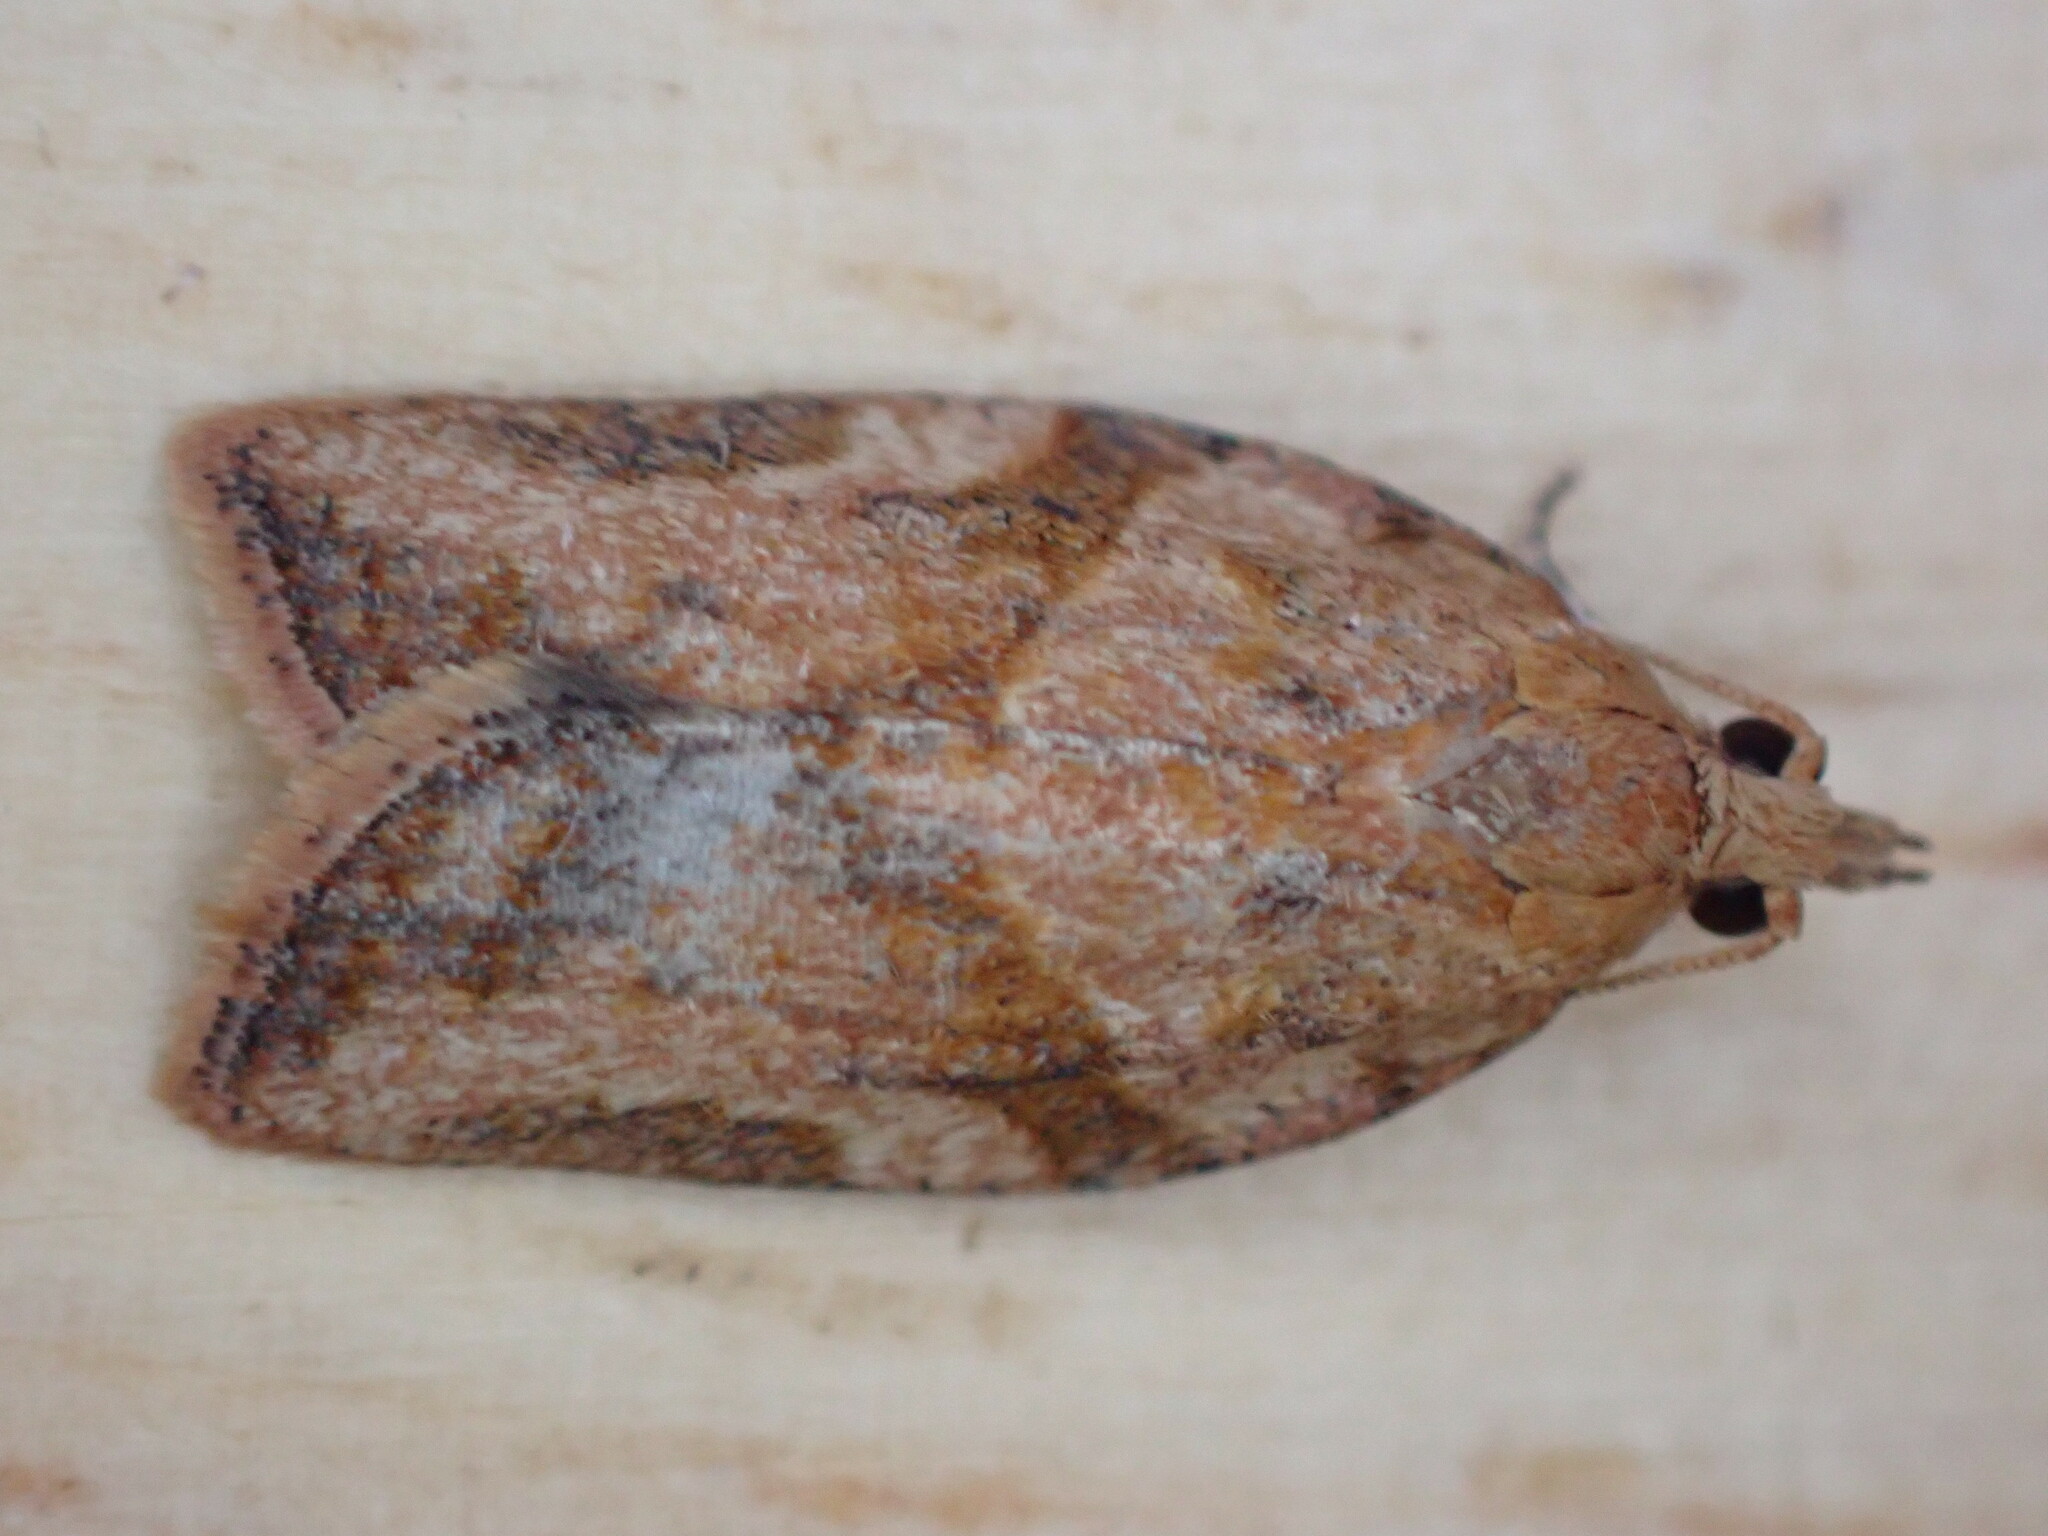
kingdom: Animalia
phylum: Arthropoda
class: Insecta
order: Lepidoptera
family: Tortricidae
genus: Epiphyas
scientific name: Epiphyas postvittana
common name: Light brown apple moth
